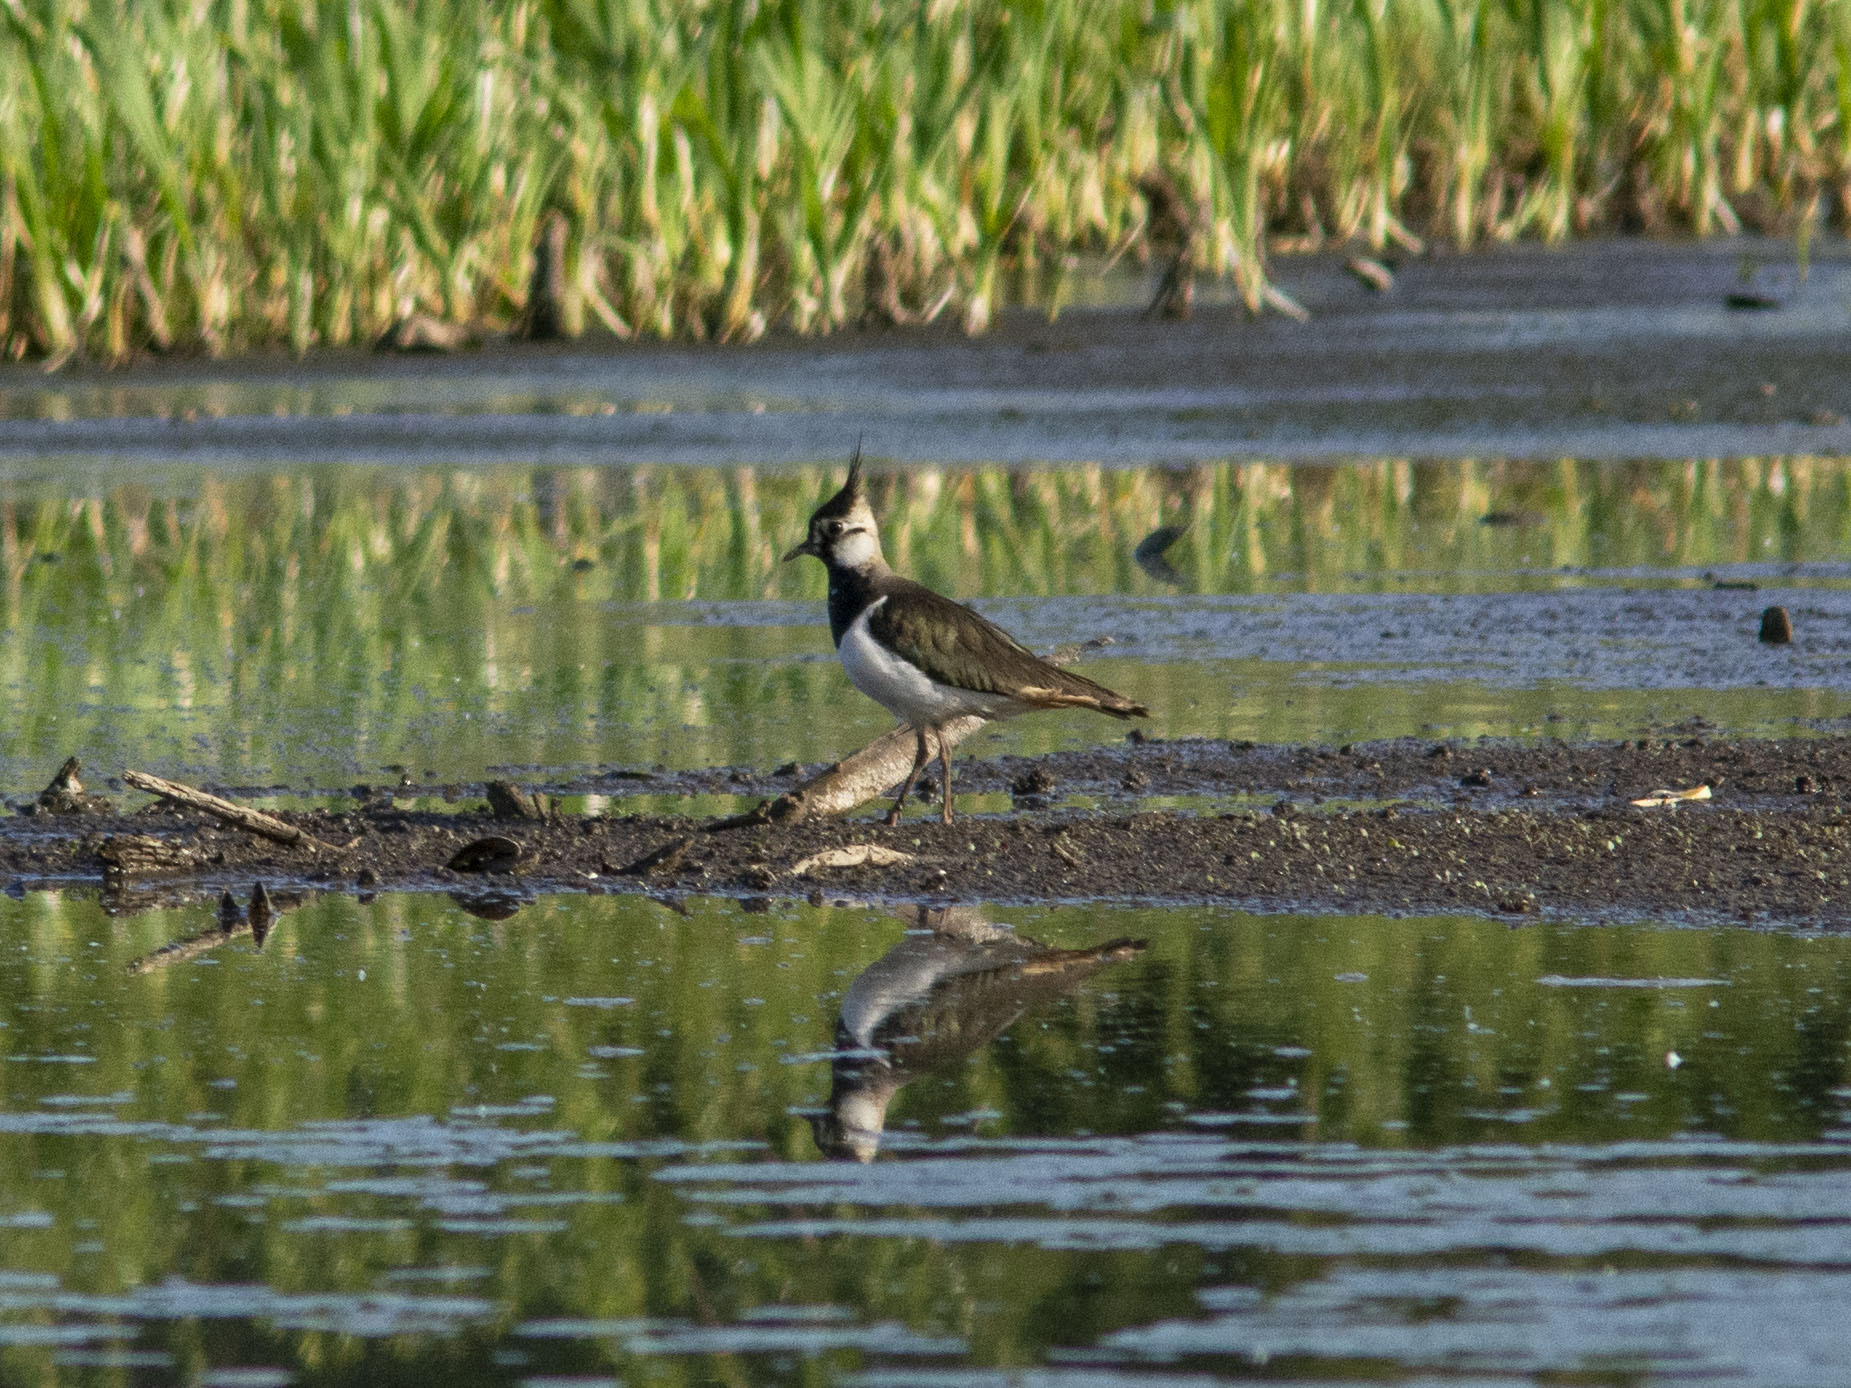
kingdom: Animalia
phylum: Chordata
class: Aves
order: Charadriiformes
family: Charadriidae
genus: Vanellus
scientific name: Vanellus vanellus
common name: Northern lapwing
